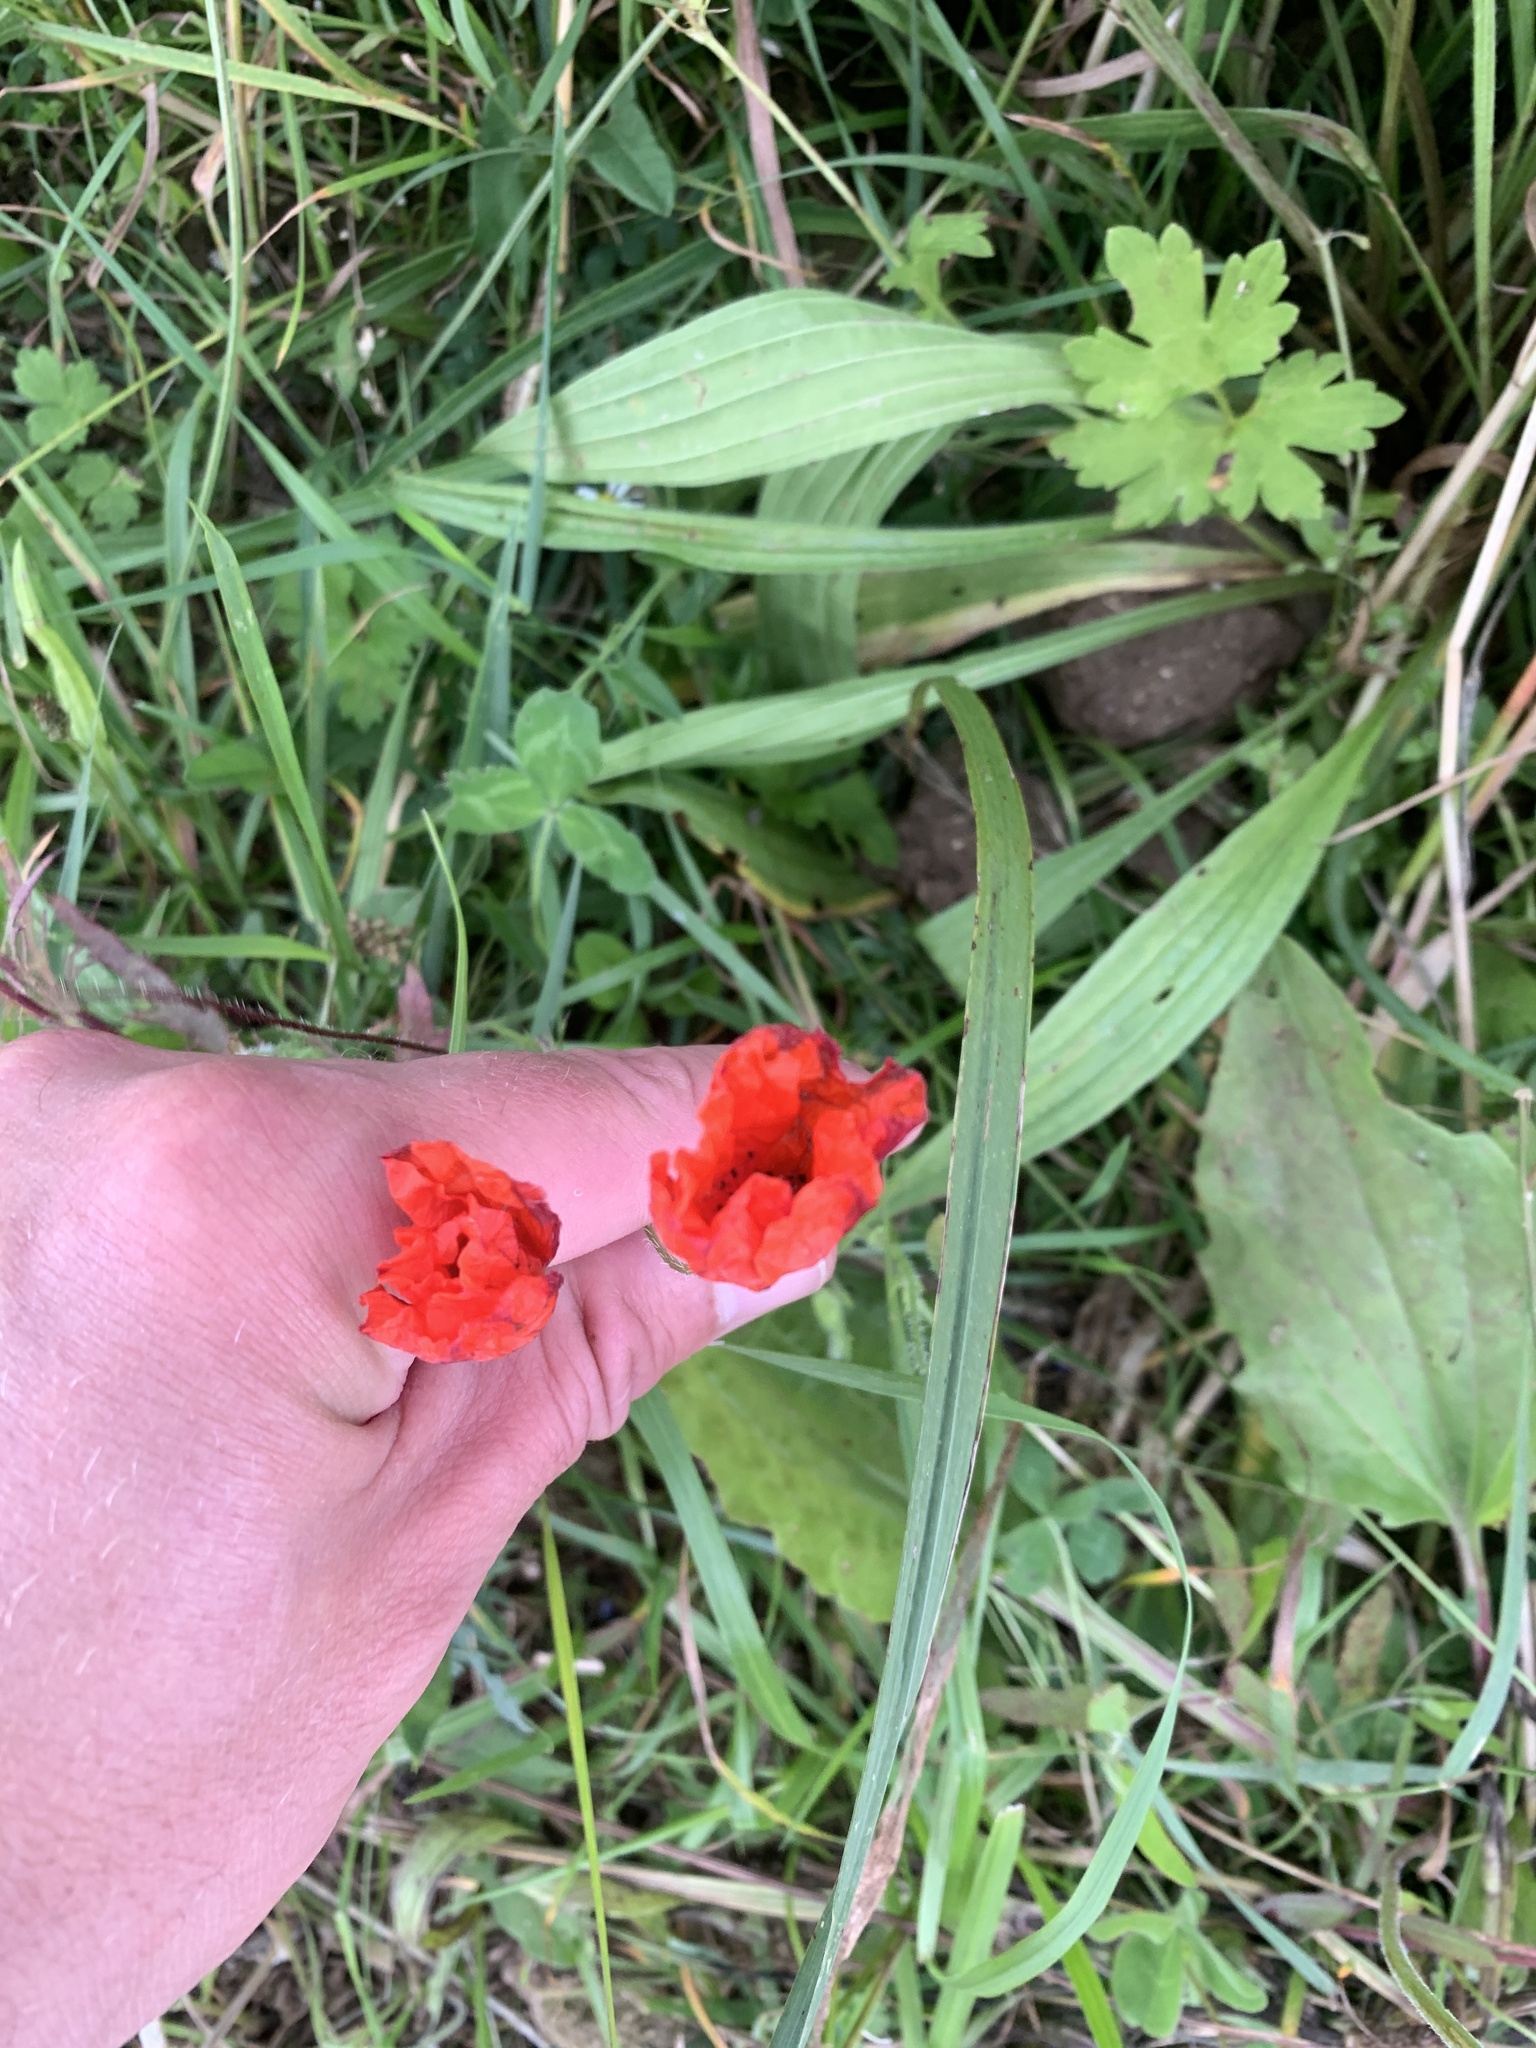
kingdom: Plantae
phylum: Tracheophyta
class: Magnoliopsida
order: Ranunculales
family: Papaveraceae
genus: Papaver
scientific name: Papaver rhoeas
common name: Corn poppy
